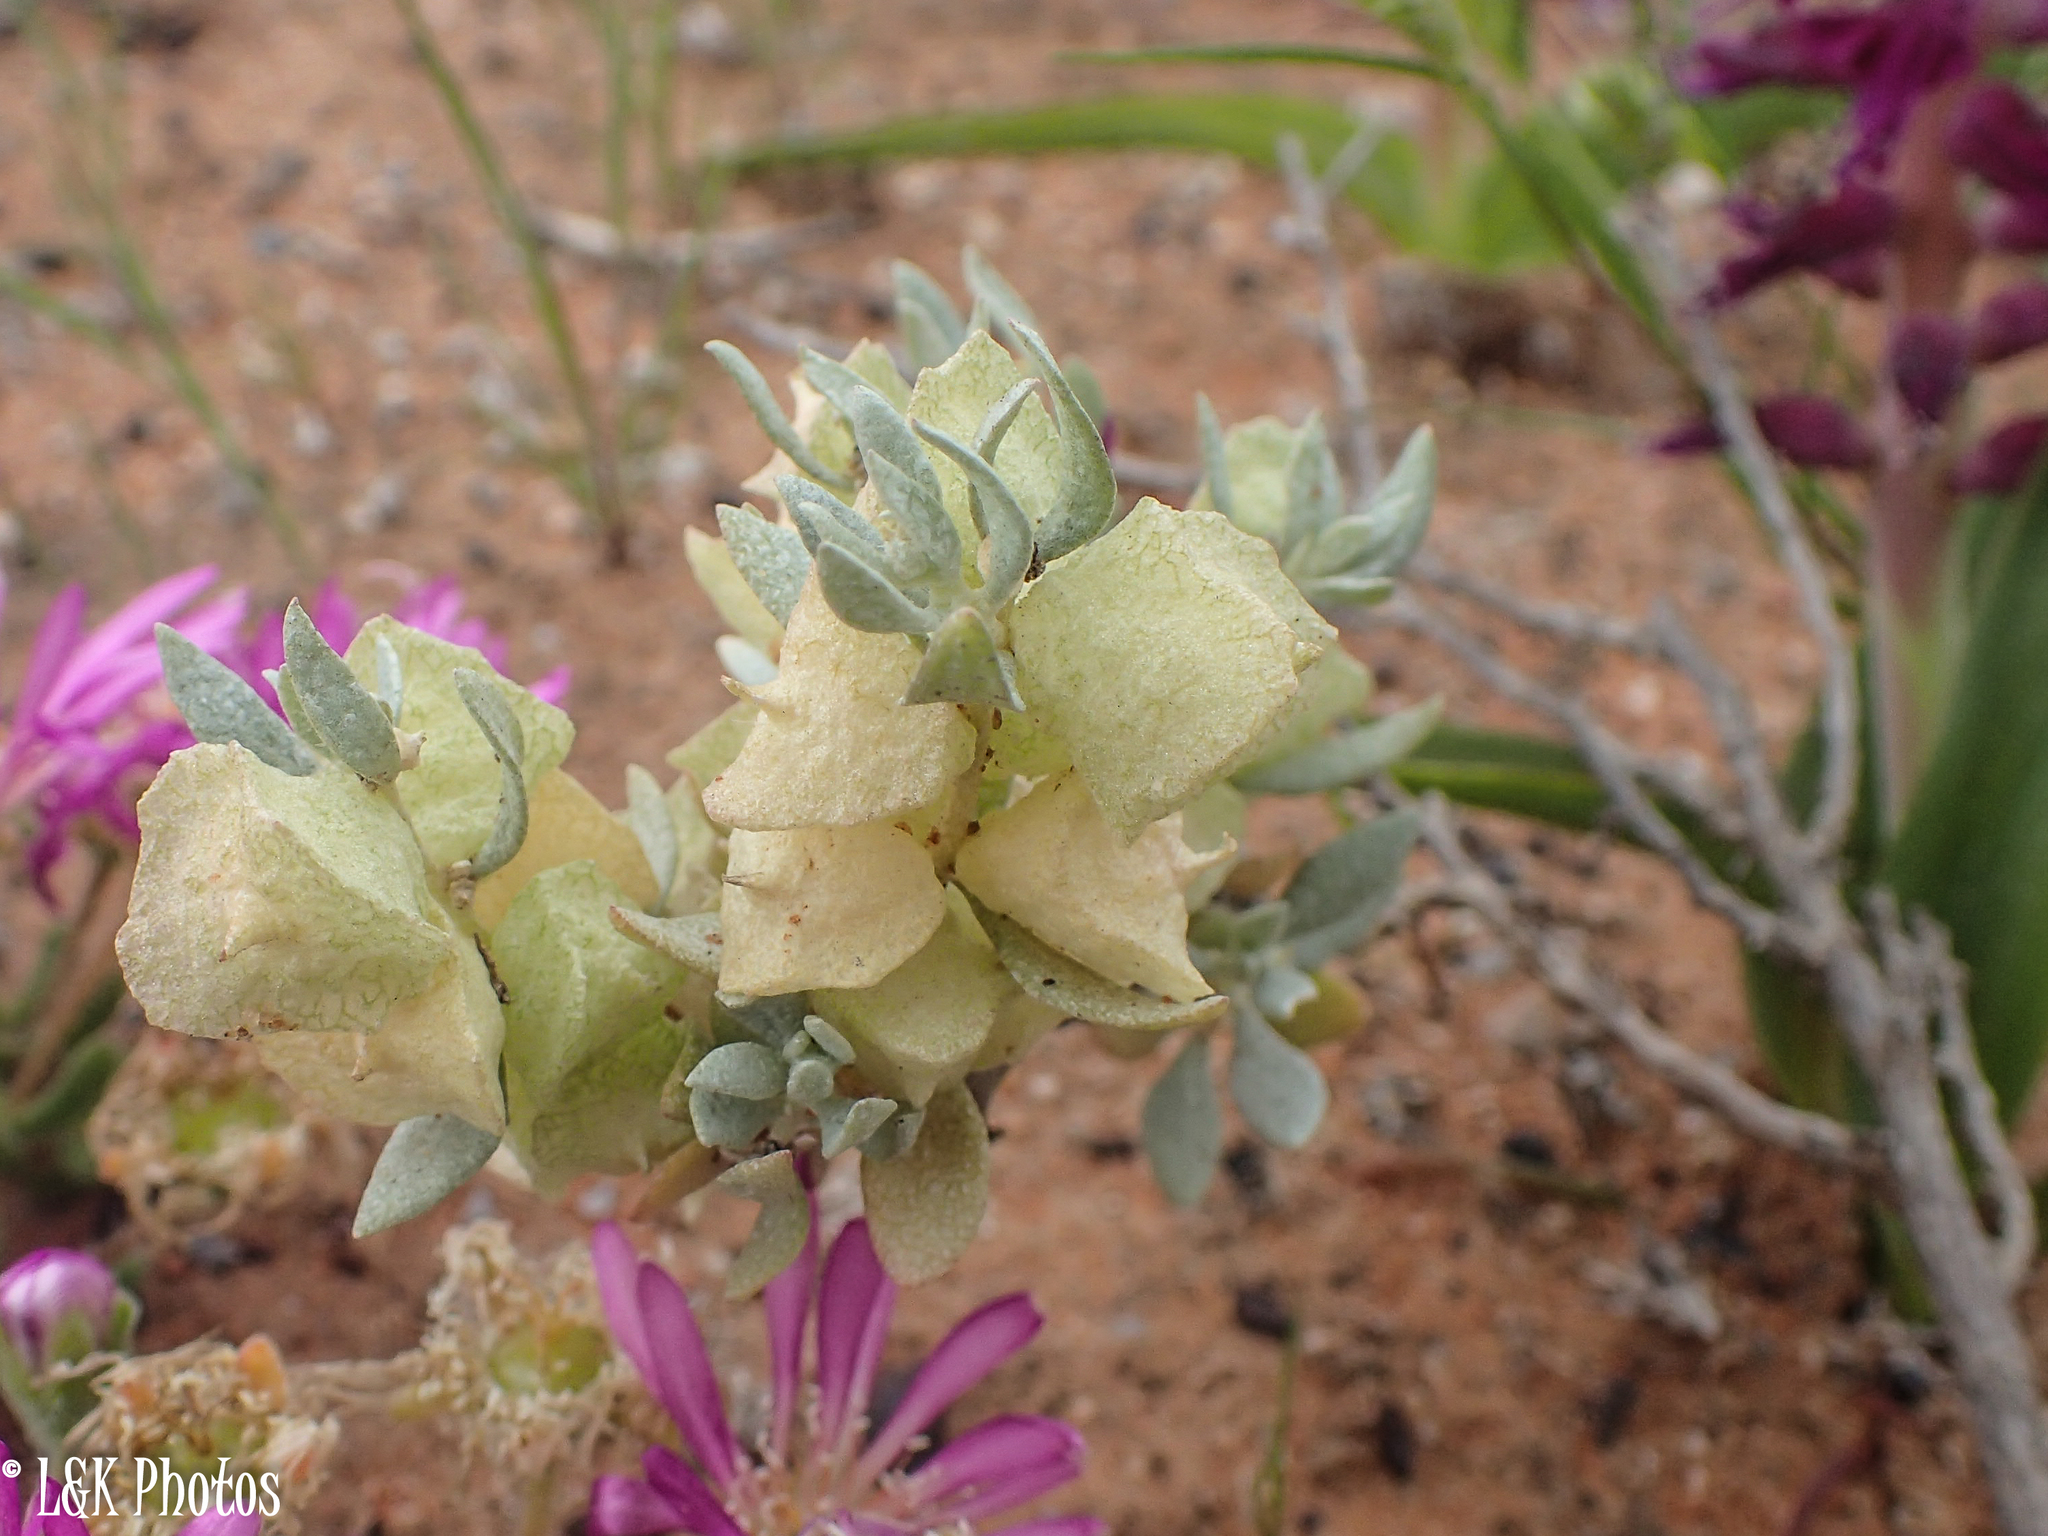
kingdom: Plantae
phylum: Tracheophyta
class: Magnoliopsida
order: Caryophyllales
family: Amaranthaceae
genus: Atriplex
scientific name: Atriplex lindleyi
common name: Lindley's saltbush
